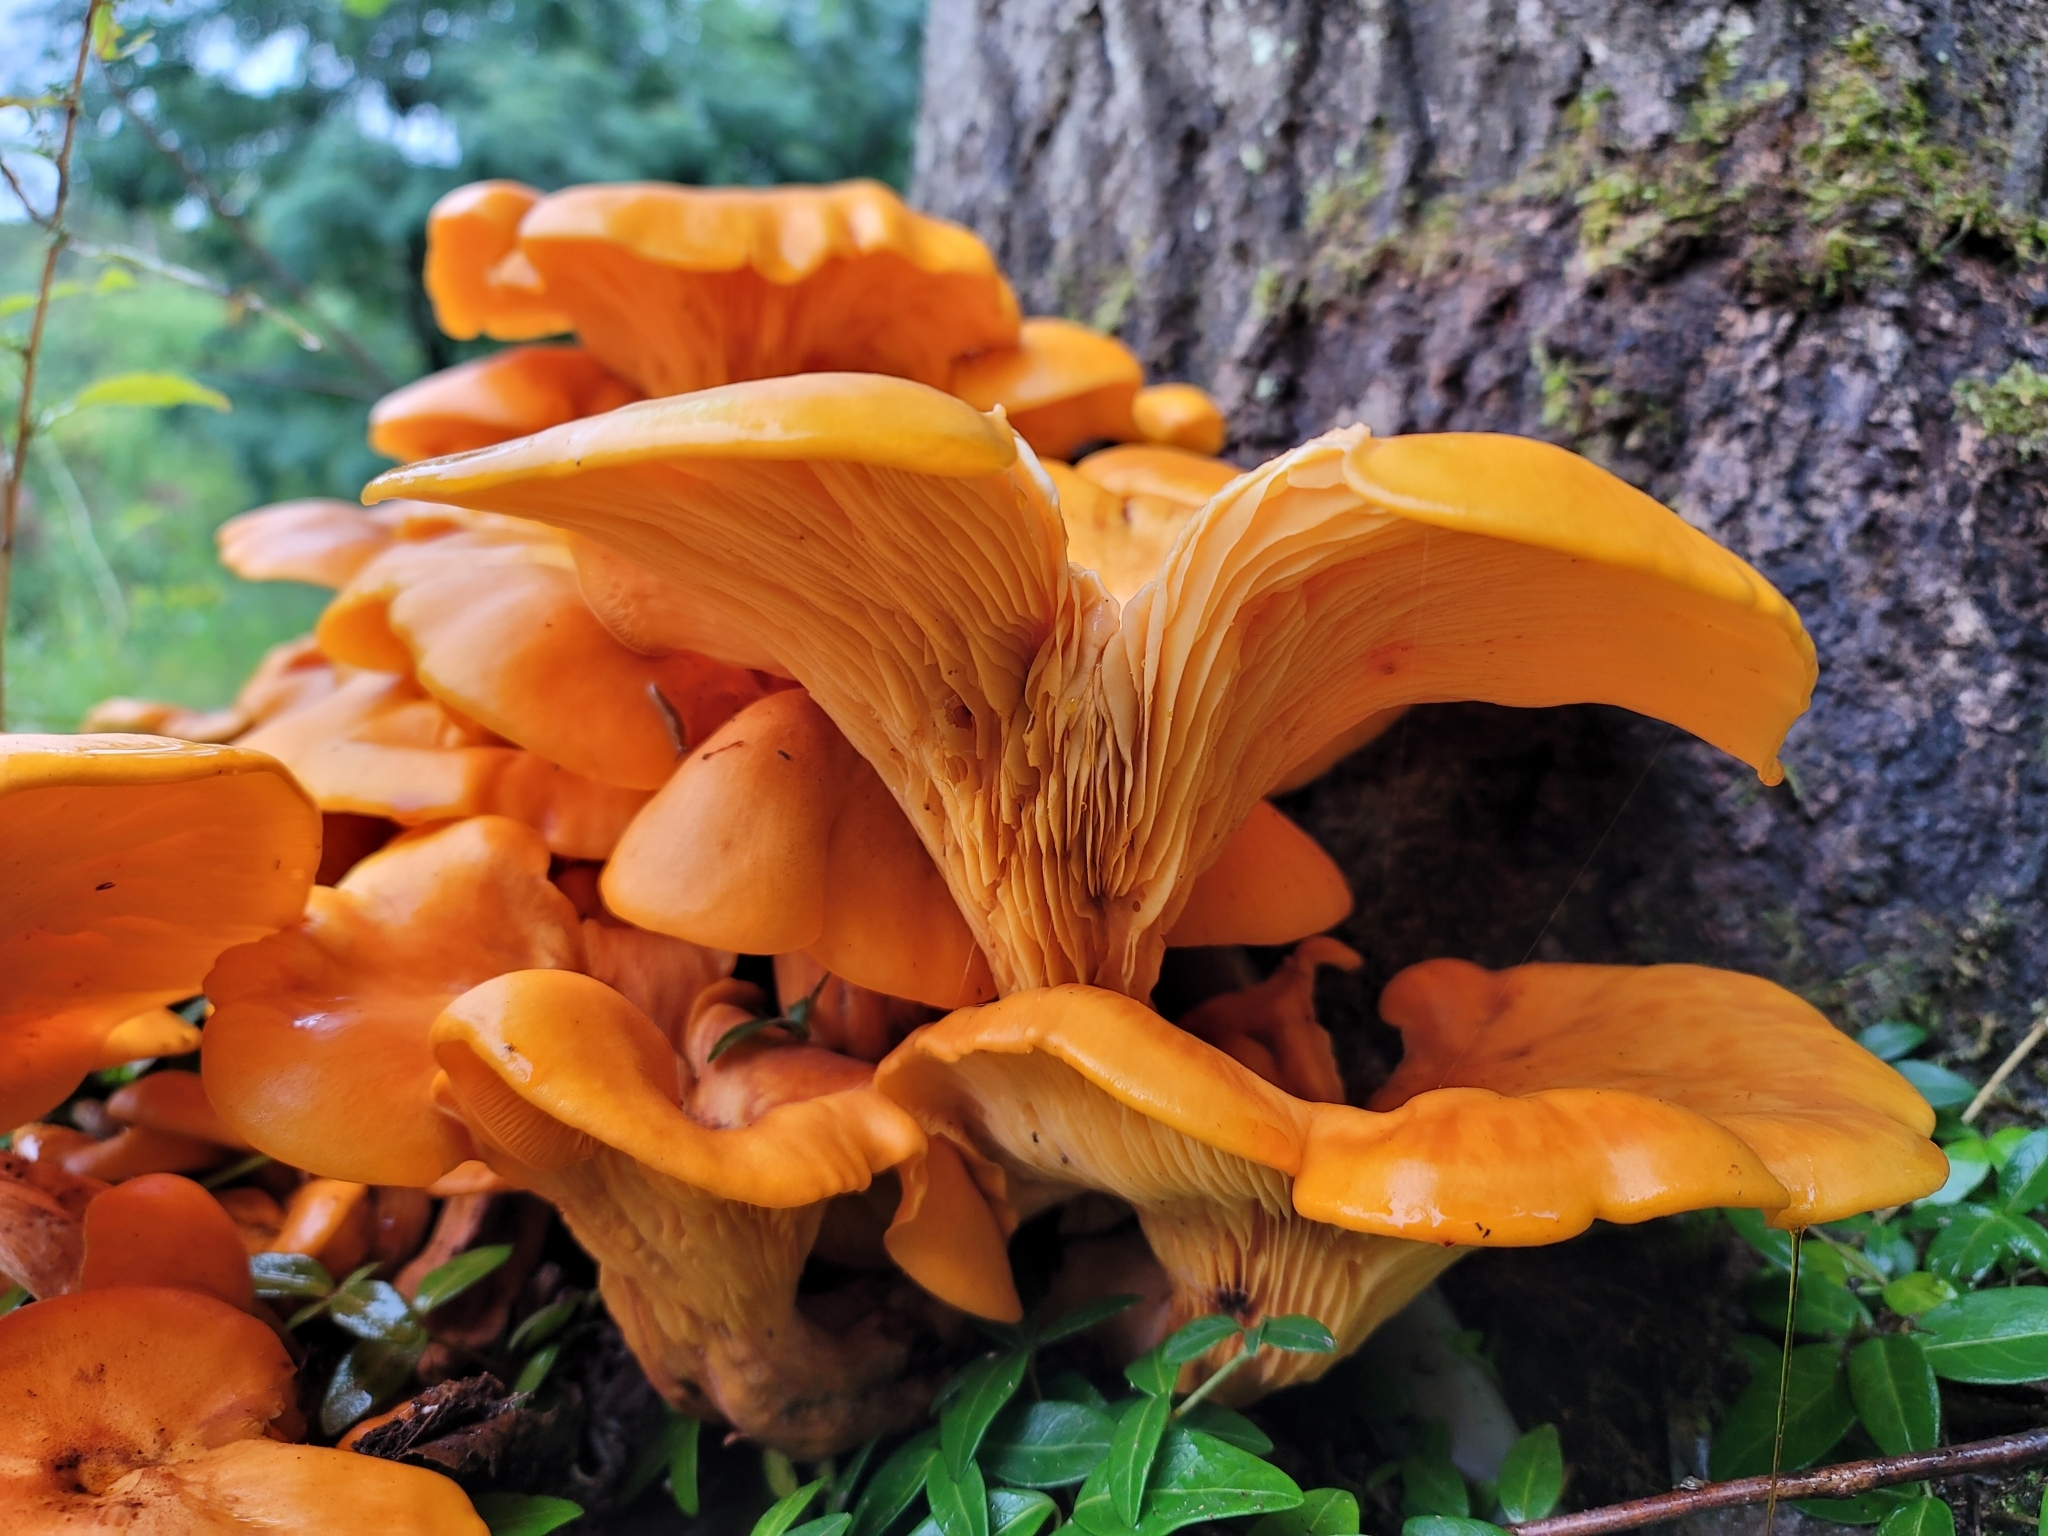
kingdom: Fungi
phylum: Basidiomycota
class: Agaricomycetes
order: Agaricales
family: Omphalotaceae
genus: Omphalotus
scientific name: Omphalotus illudens
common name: Jack o lantern
